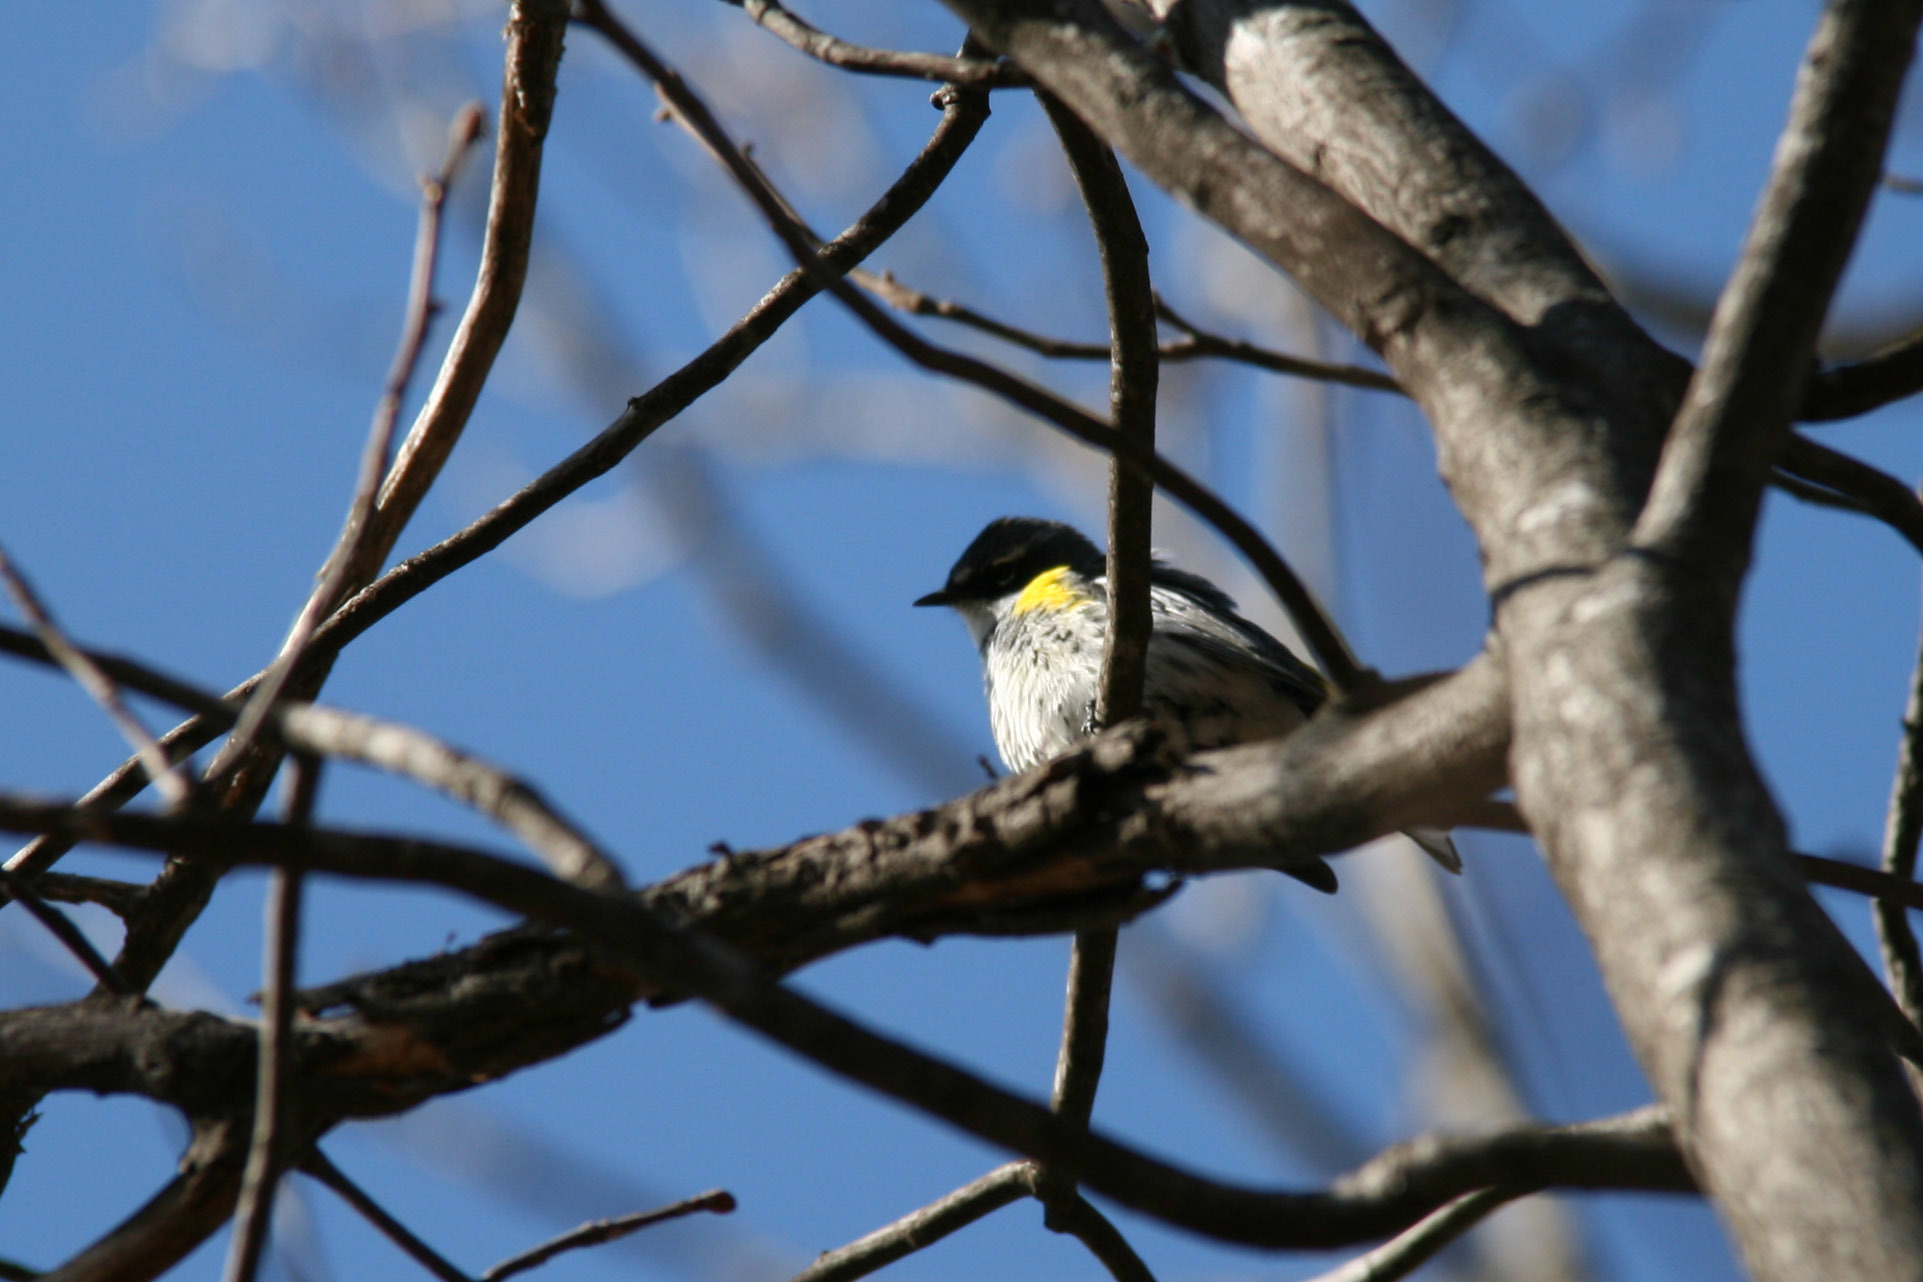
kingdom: Animalia
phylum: Chordata
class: Aves
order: Passeriformes
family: Parulidae
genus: Setophaga
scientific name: Setophaga coronata
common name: Myrtle warbler
